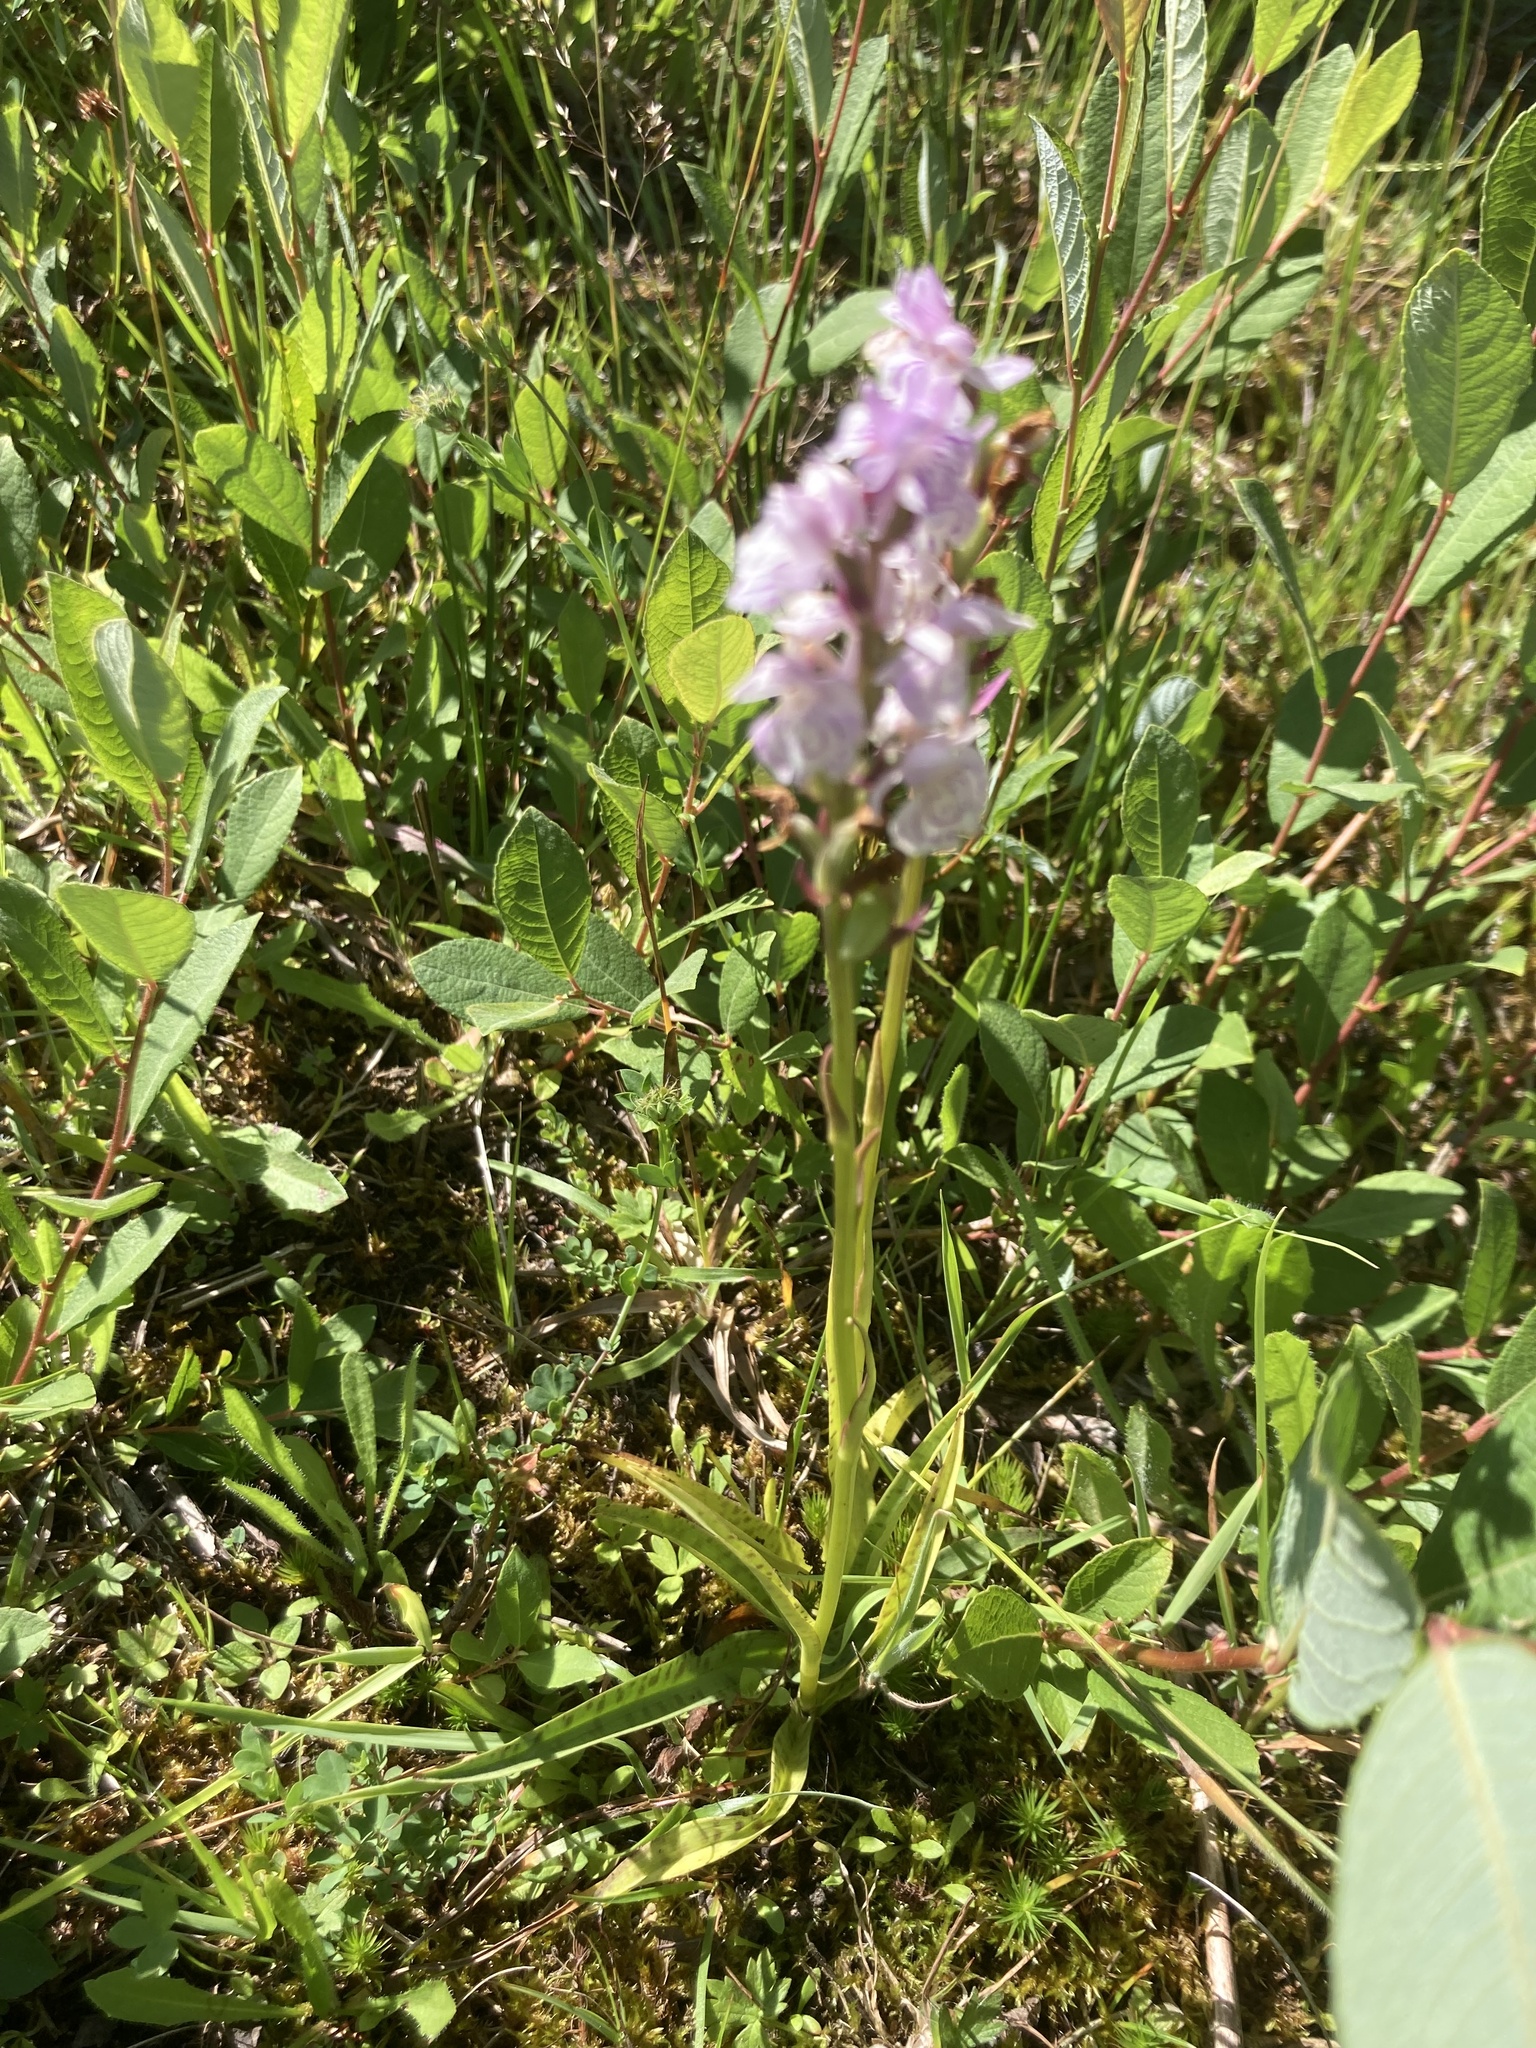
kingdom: Plantae
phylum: Tracheophyta
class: Liliopsida
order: Asparagales
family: Orchidaceae
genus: Dactylorhiza
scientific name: Dactylorhiza maculata
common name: Heath spotted-orchid
